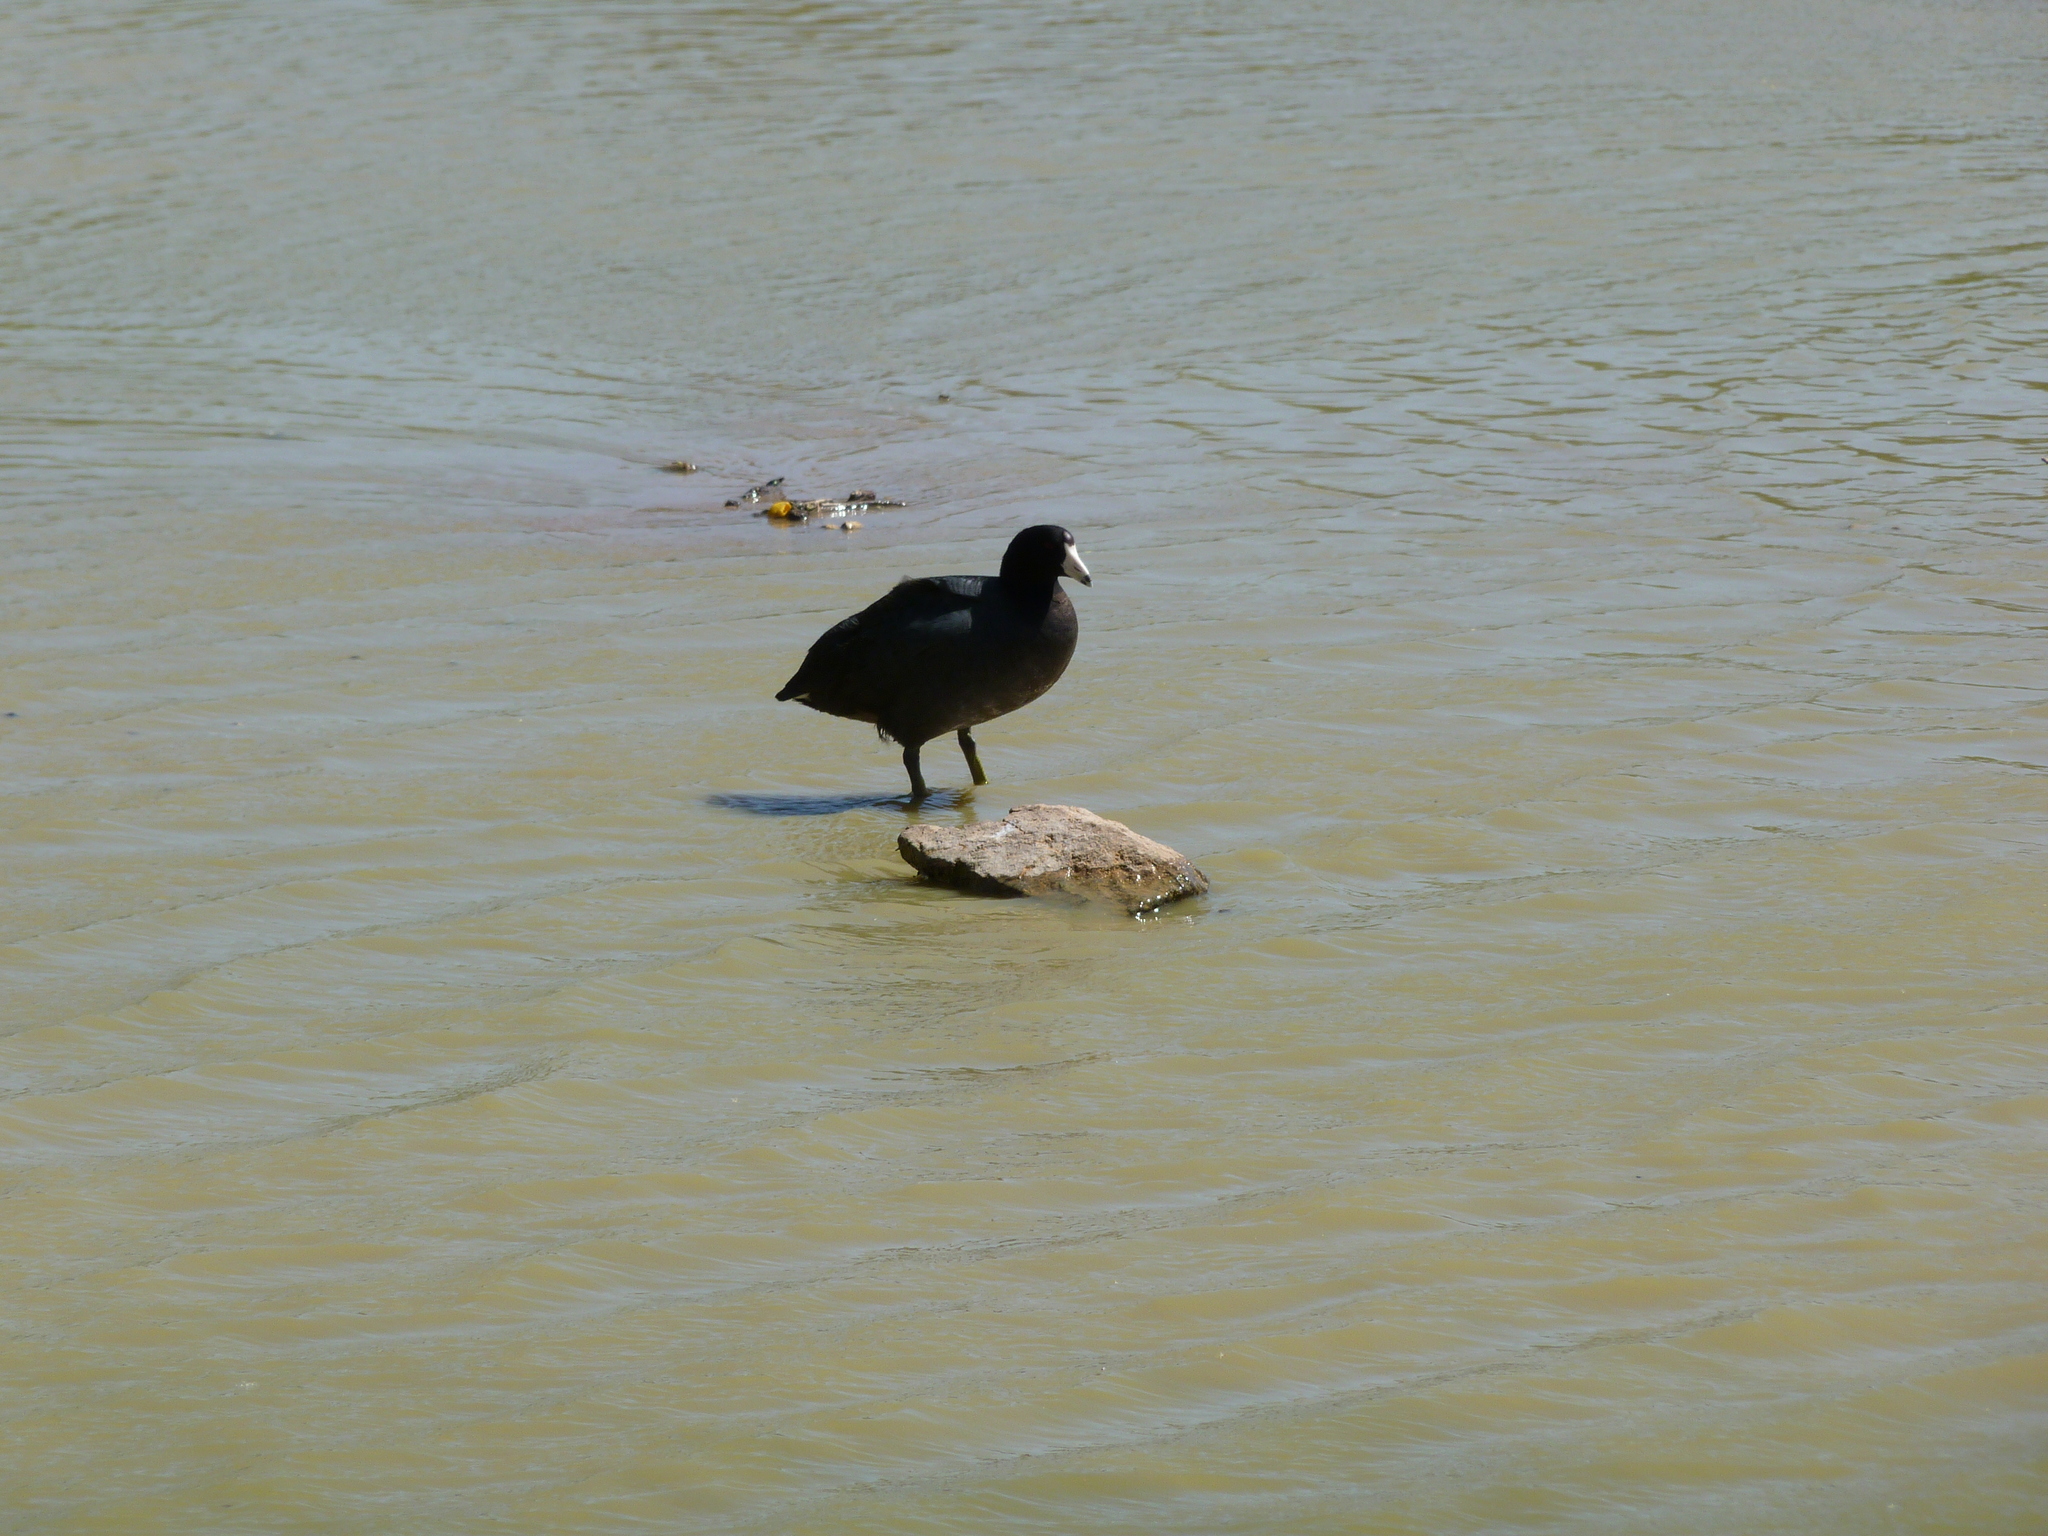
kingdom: Animalia
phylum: Chordata
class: Aves
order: Gruiformes
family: Rallidae
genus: Fulica
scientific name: Fulica americana
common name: American coot
